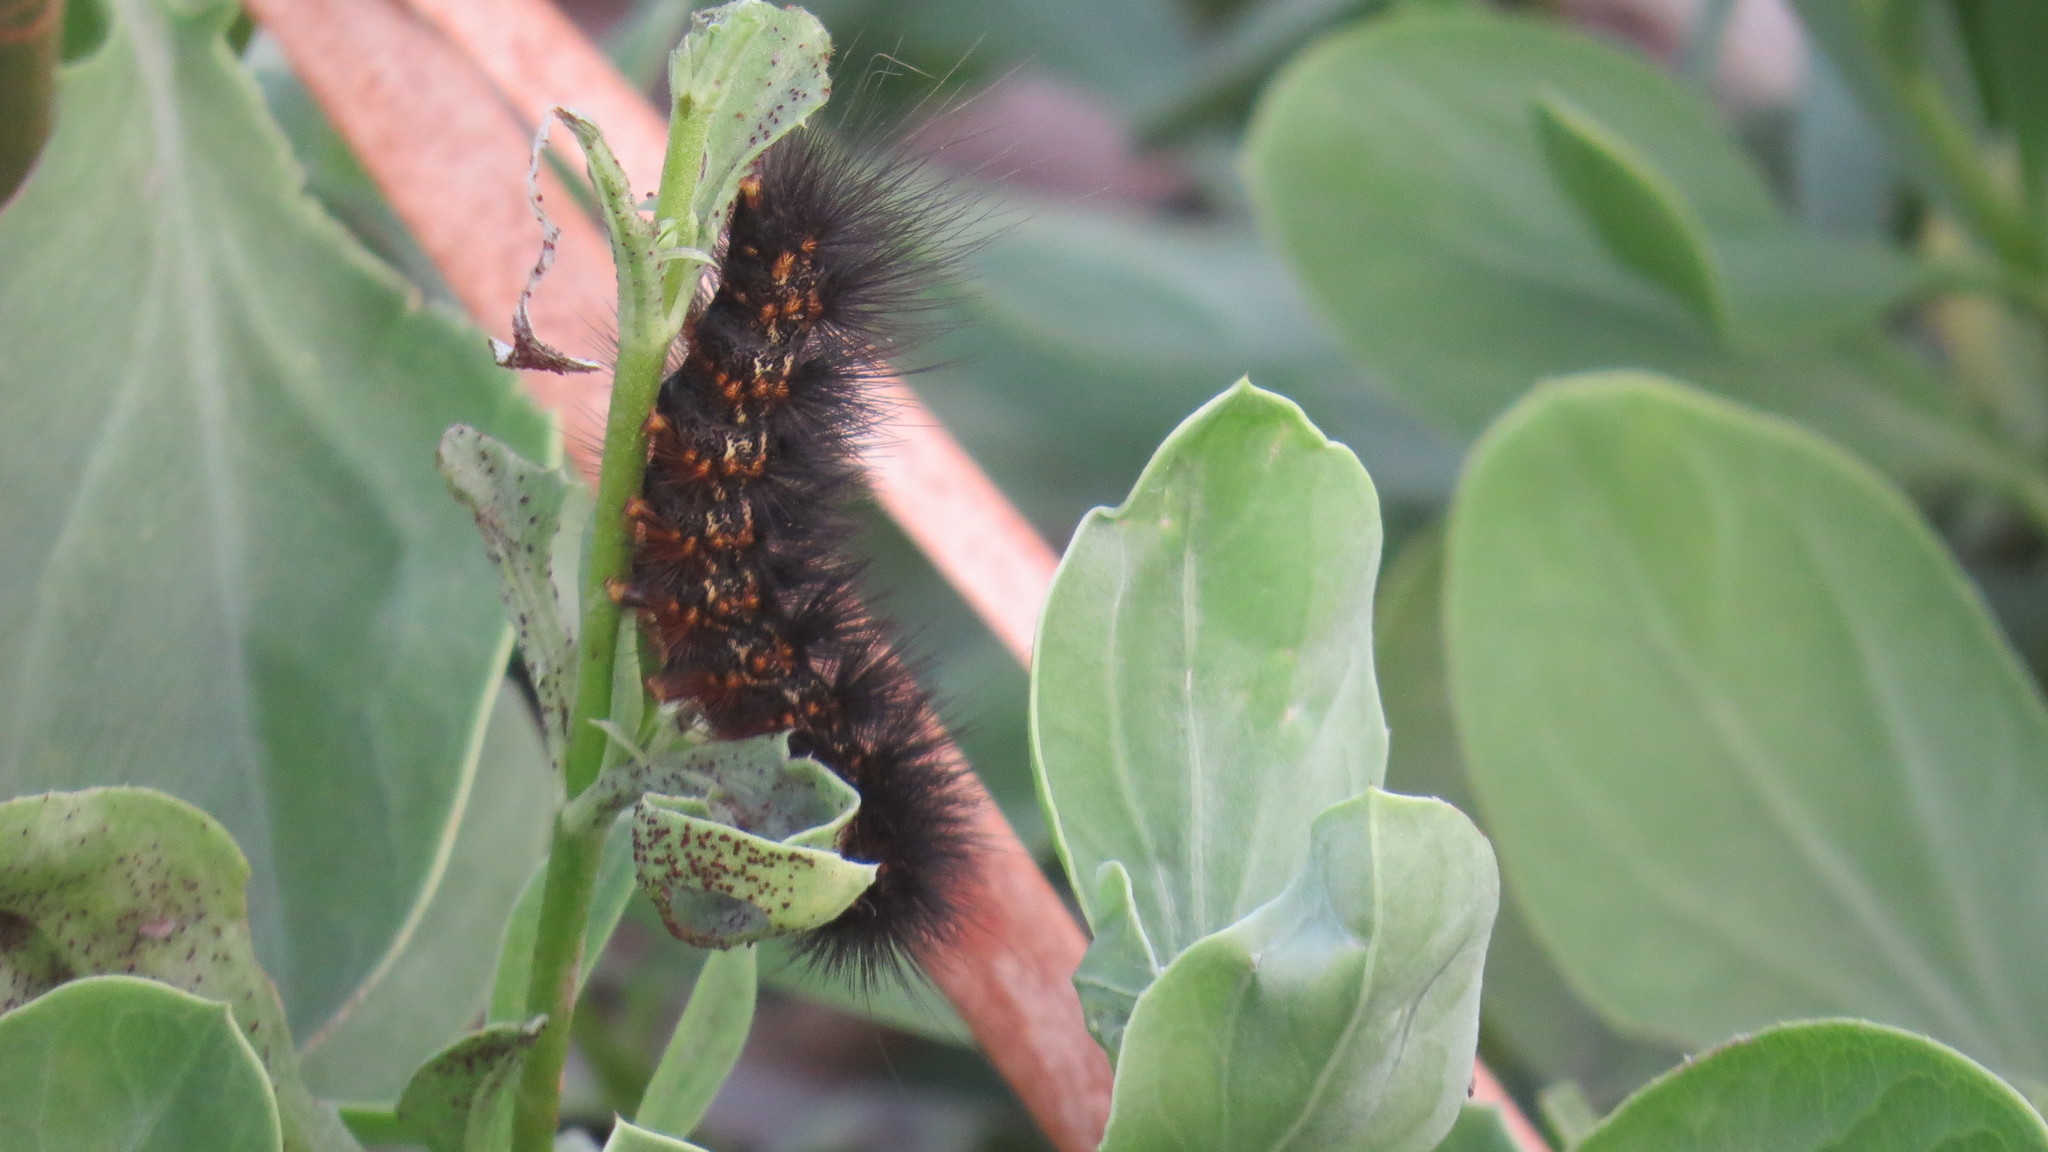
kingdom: Animalia
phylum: Arthropoda
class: Insecta
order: Lepidoptera
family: Erebidae
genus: Estigmene
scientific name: Estigmene acrea
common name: Salt marsh moth
